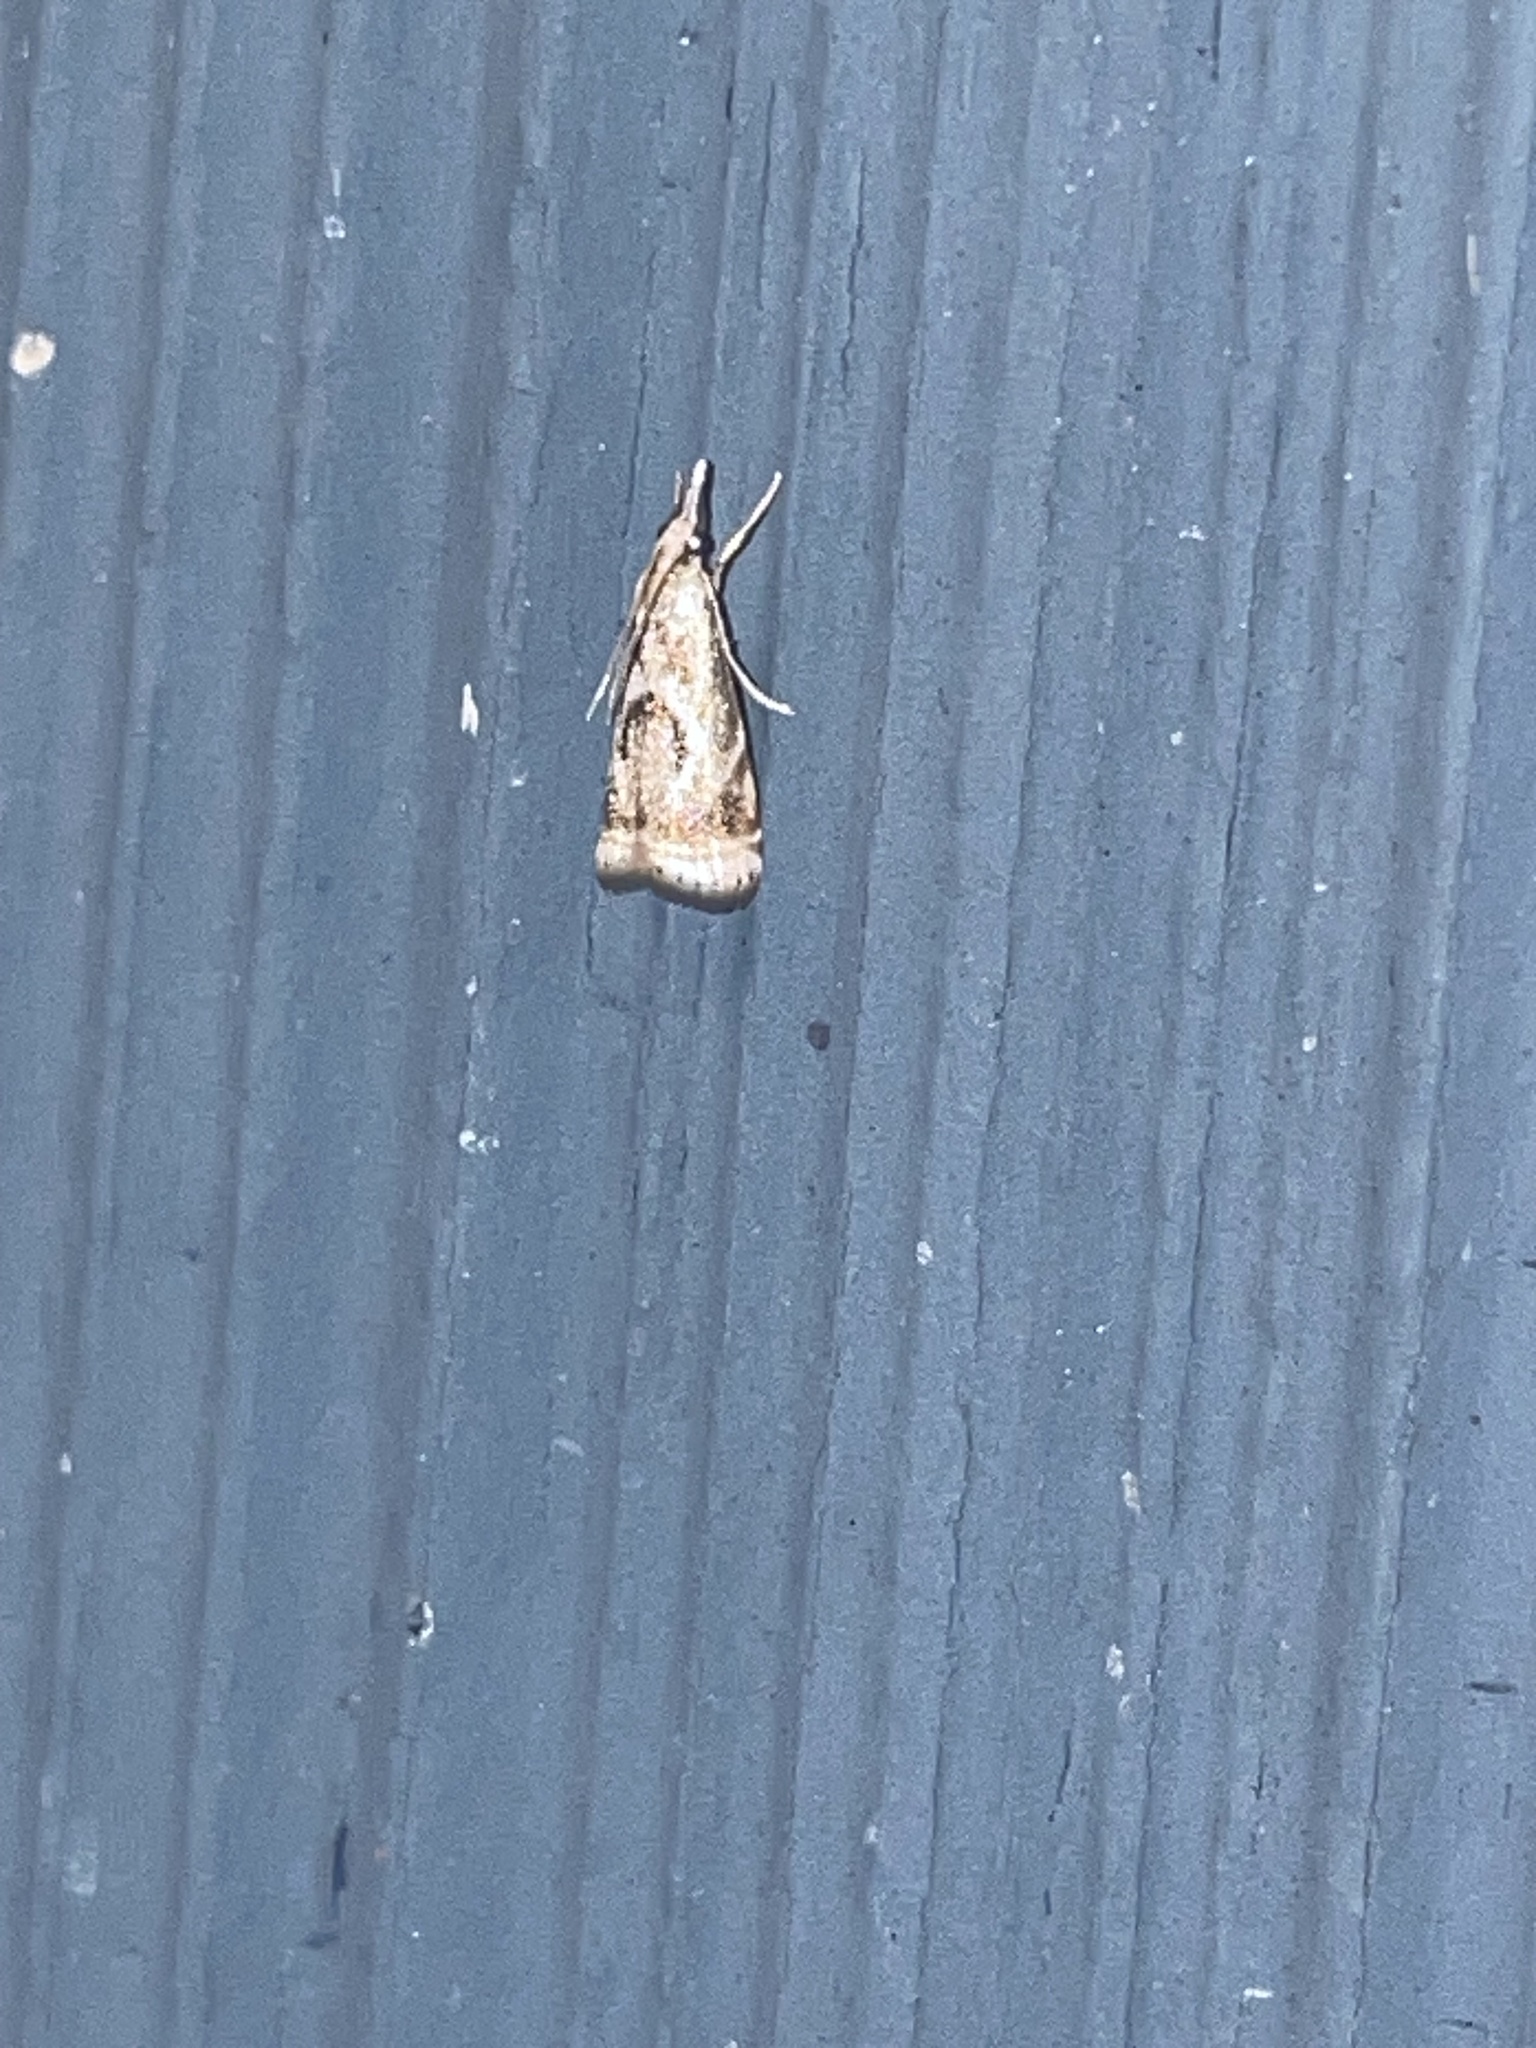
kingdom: Animalia
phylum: Arthropoda
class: Insecta
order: Lepidoptera
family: Crambidae
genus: Microcrambus
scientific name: Microcrambus elegans
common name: Elegant grass-veneer
